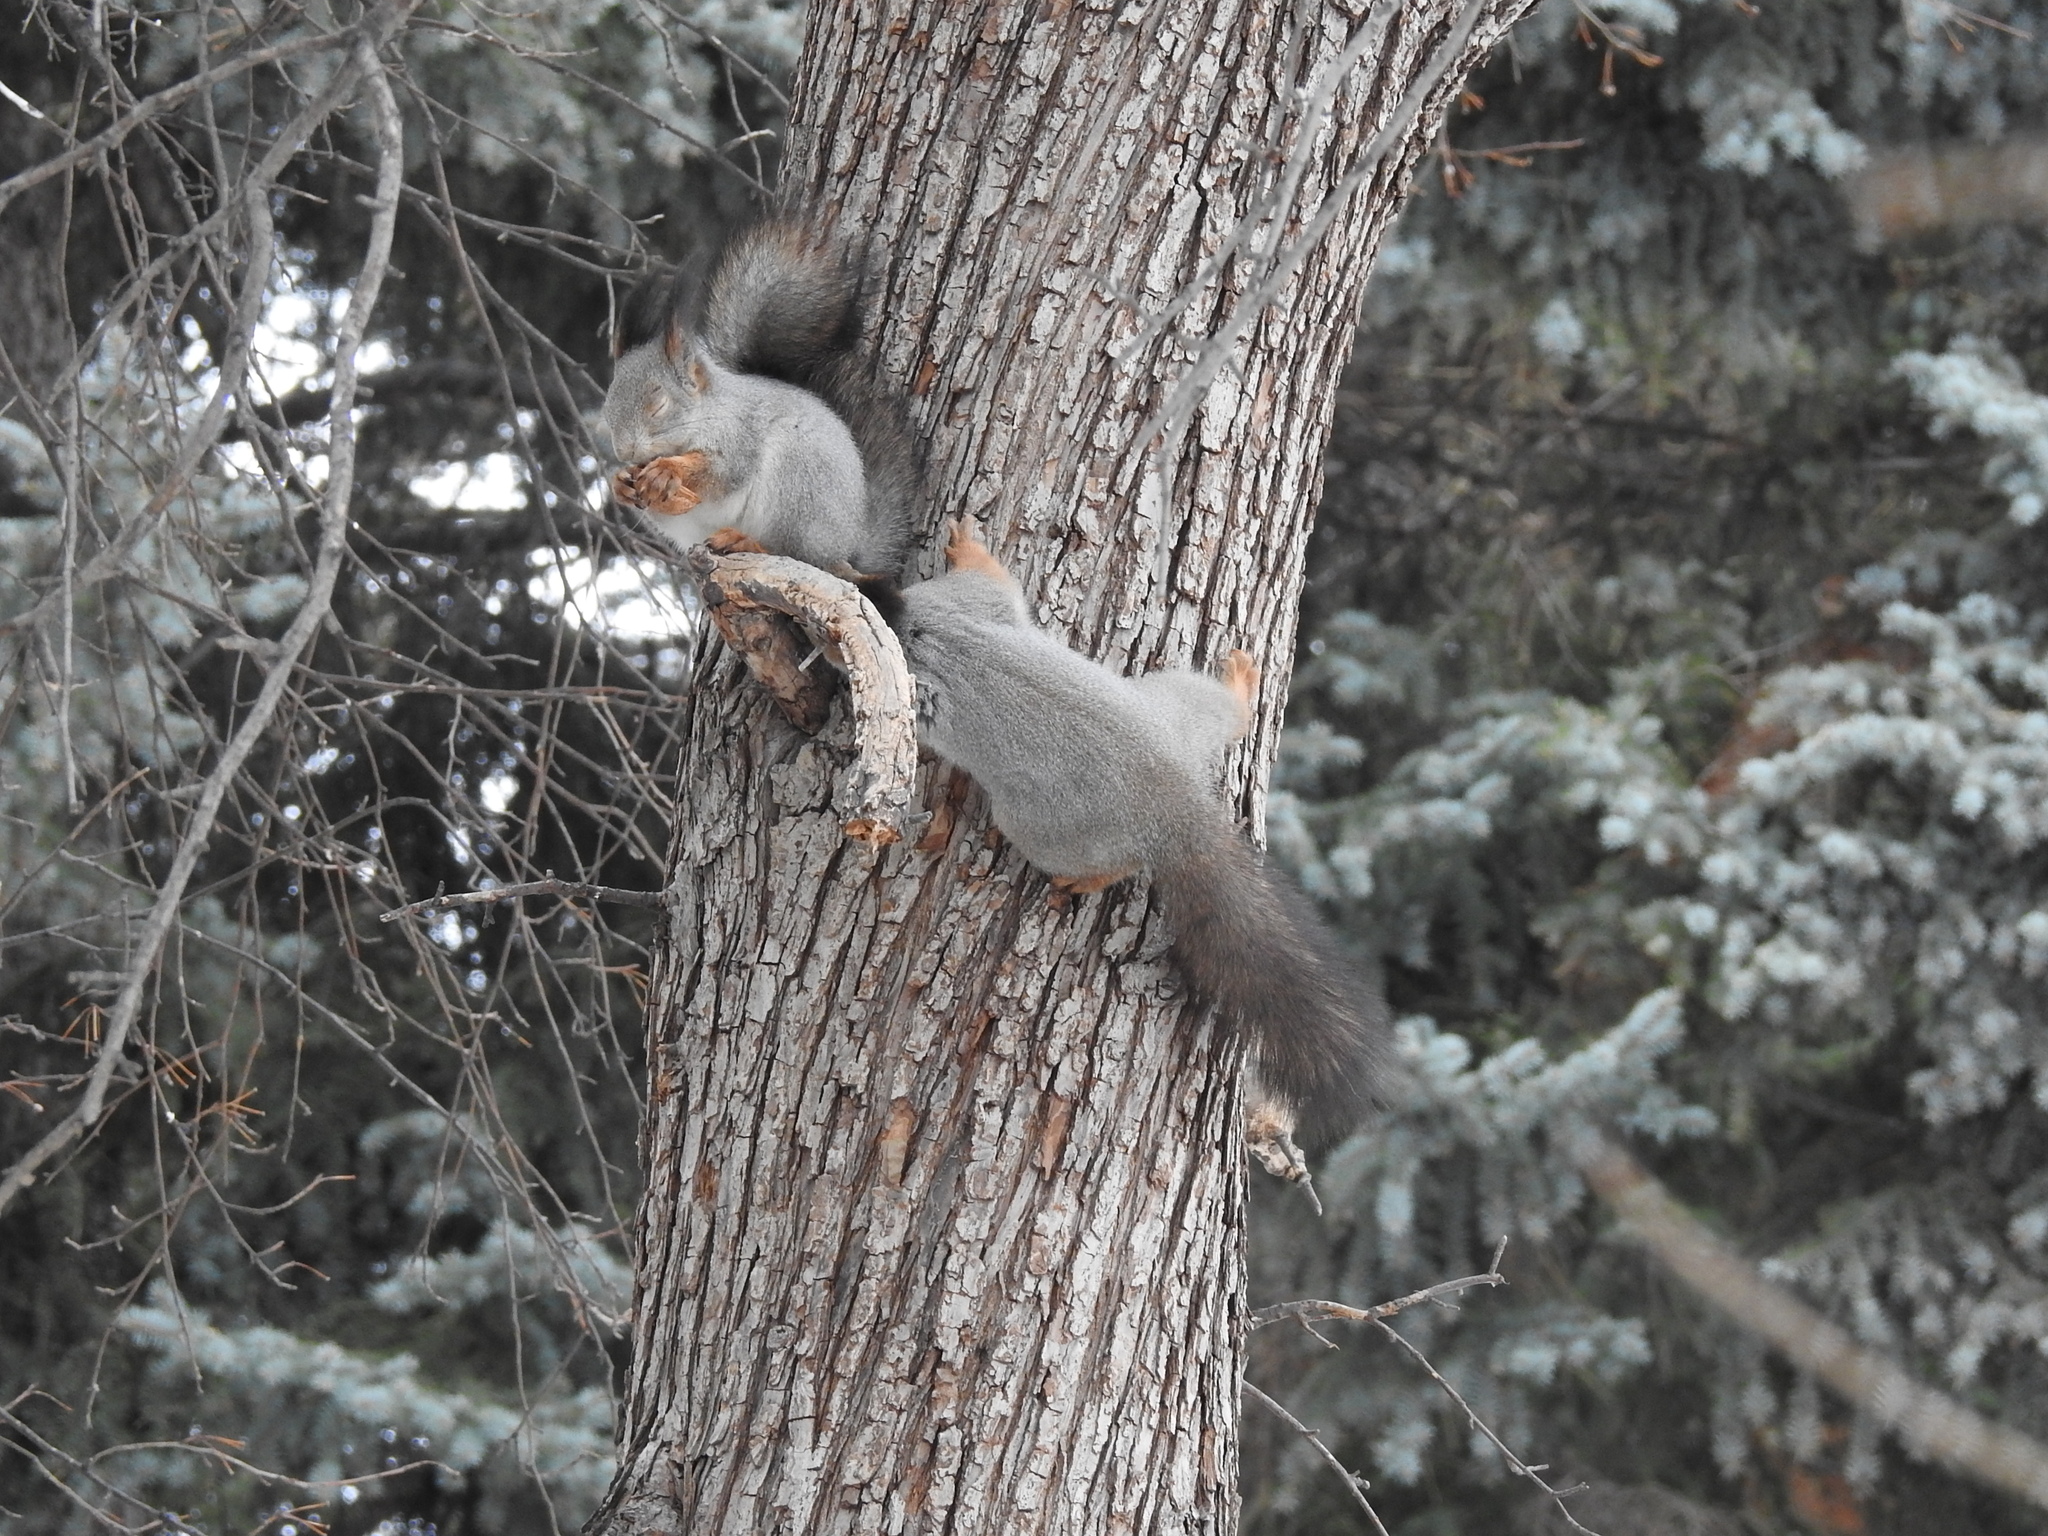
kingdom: Animalia
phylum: Chordata
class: Mammalia
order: Rodentia
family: Sciuridae
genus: Sciurus
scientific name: Sciurus vulgaris
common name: Eurasian red squirrel
